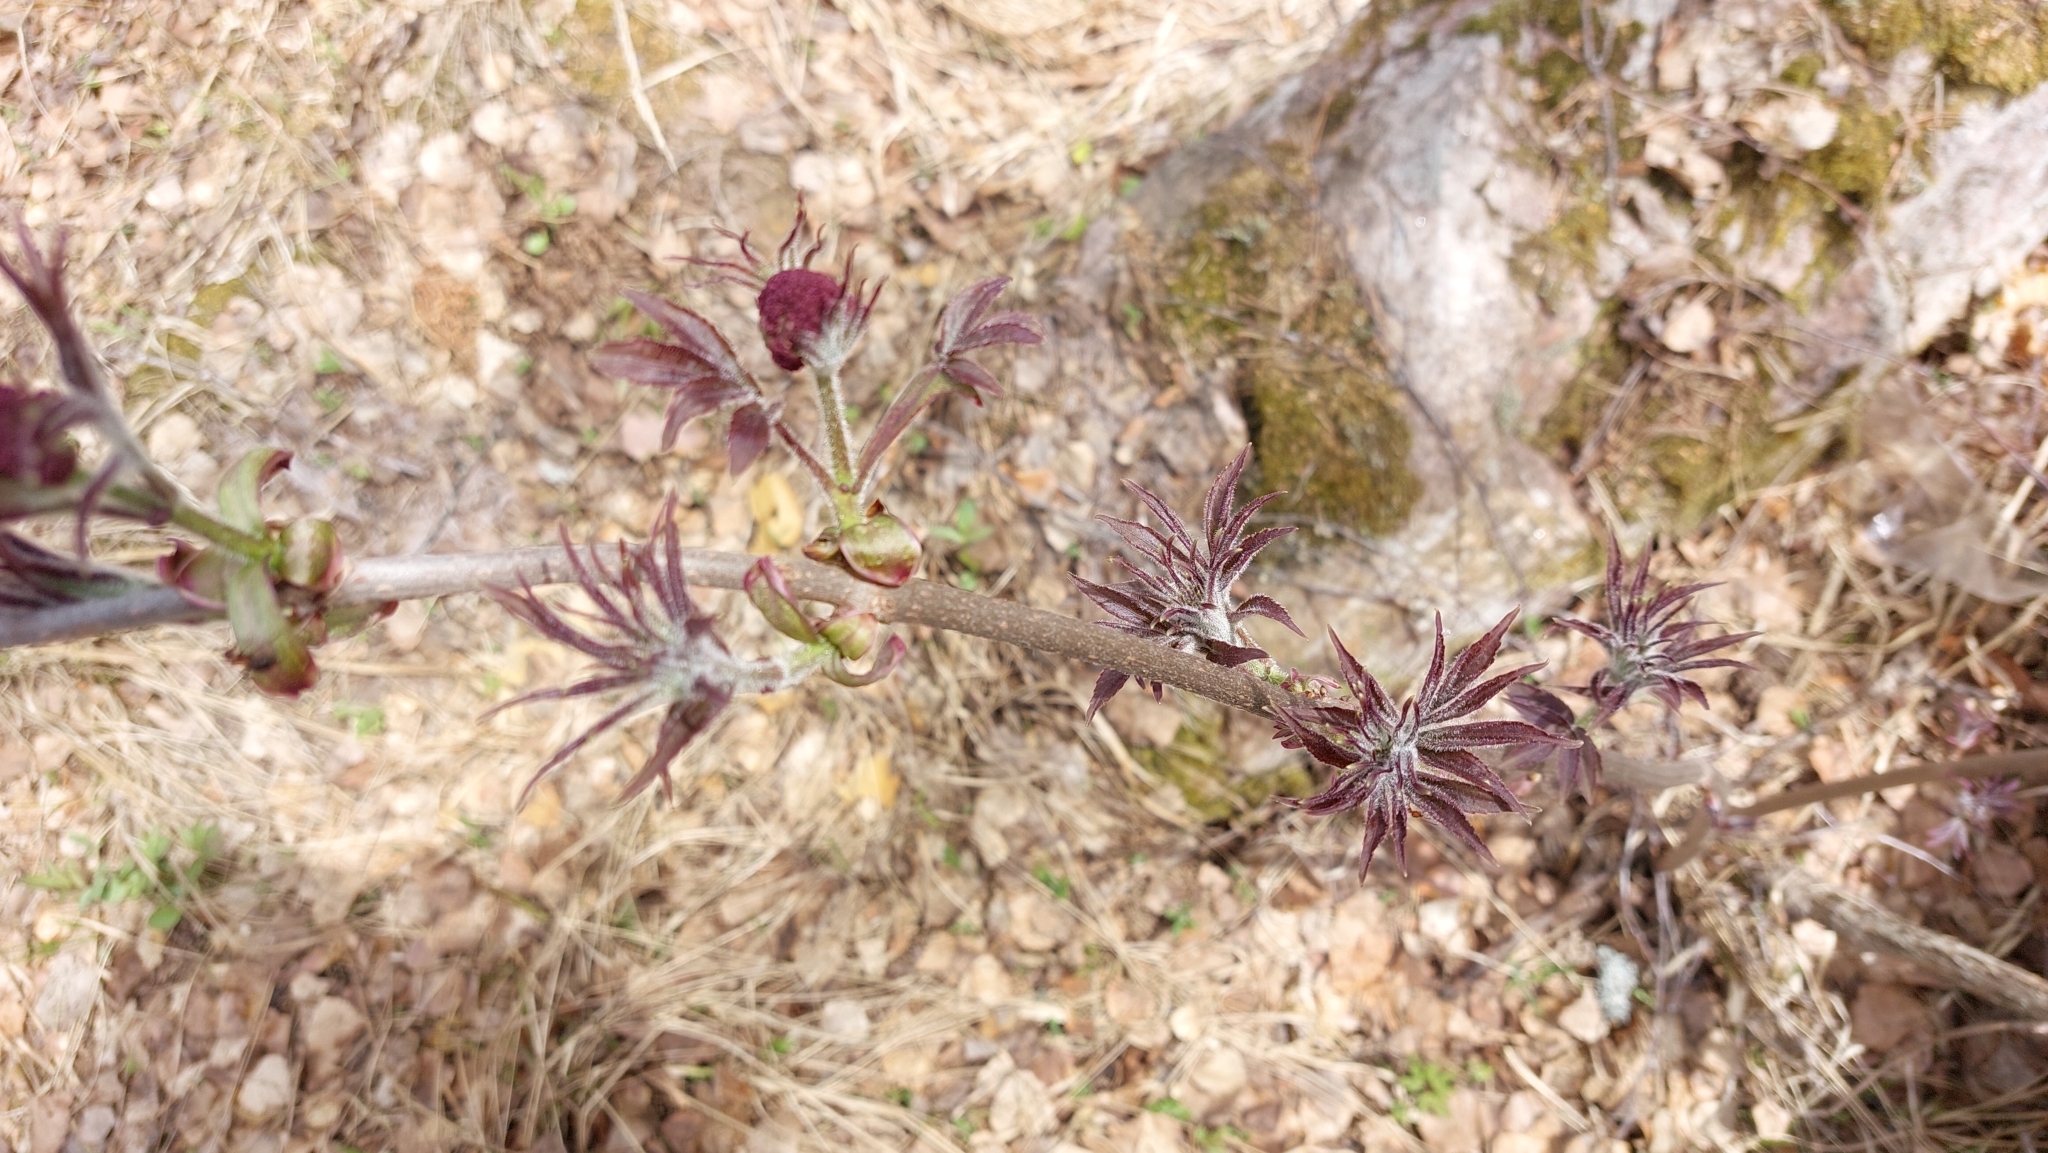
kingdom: Plantae
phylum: Tracheophyta
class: Magnoliopsida
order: Dipsacales
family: Viburnaceae
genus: Sambucus
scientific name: Sambucus sibirica
